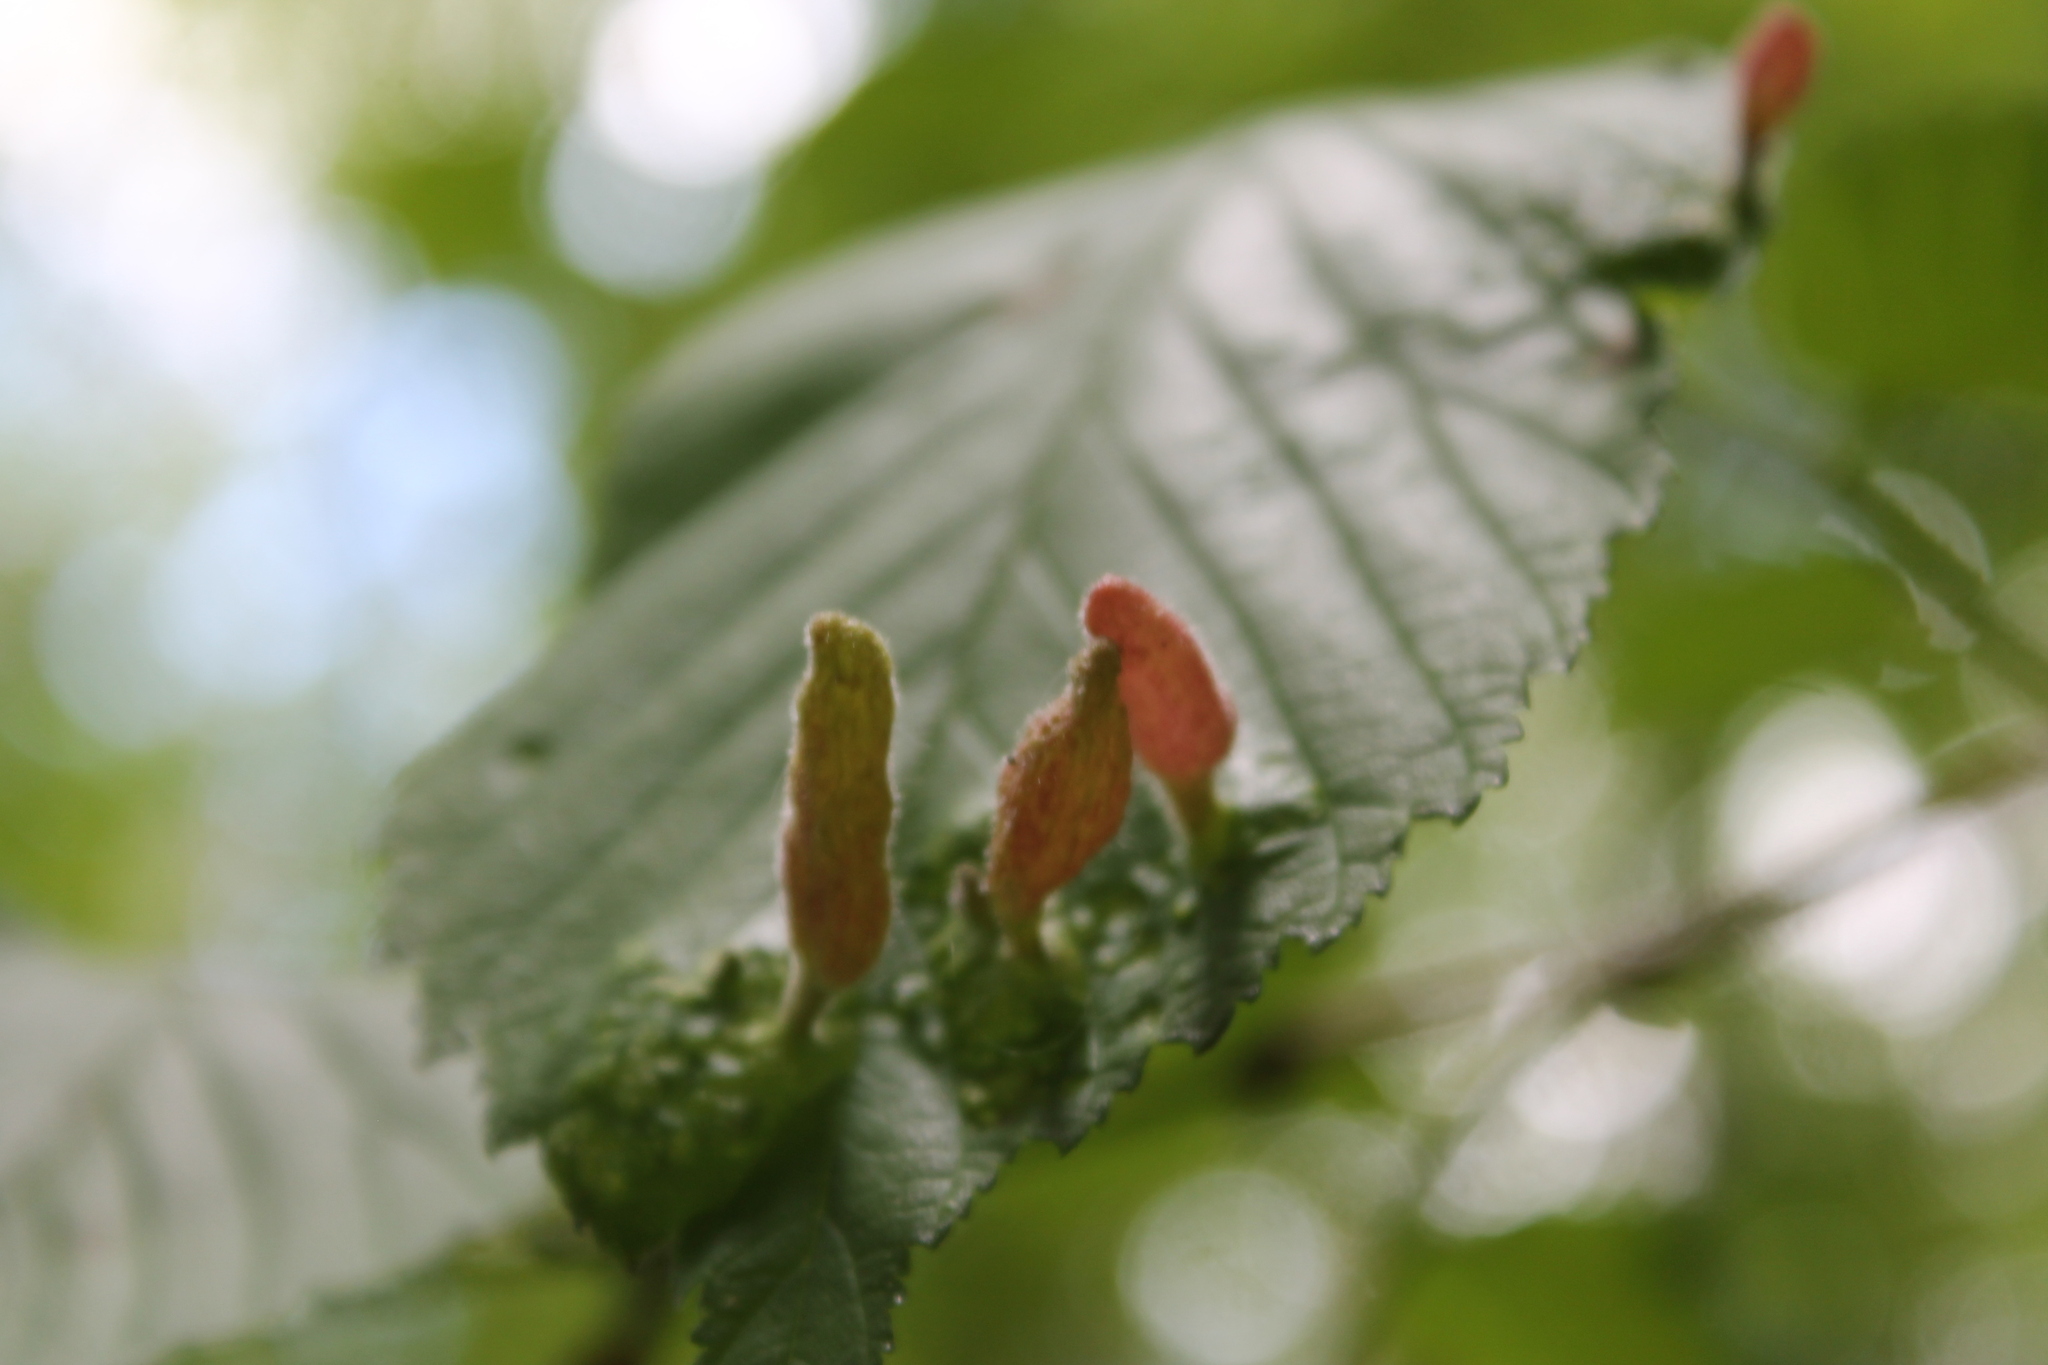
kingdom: Animalia
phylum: Arthropoda
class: Insecta
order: Hemiptera
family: Aphididae
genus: Tetraneura
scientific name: Tetraneura nigriabdominalis
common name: Aphid
